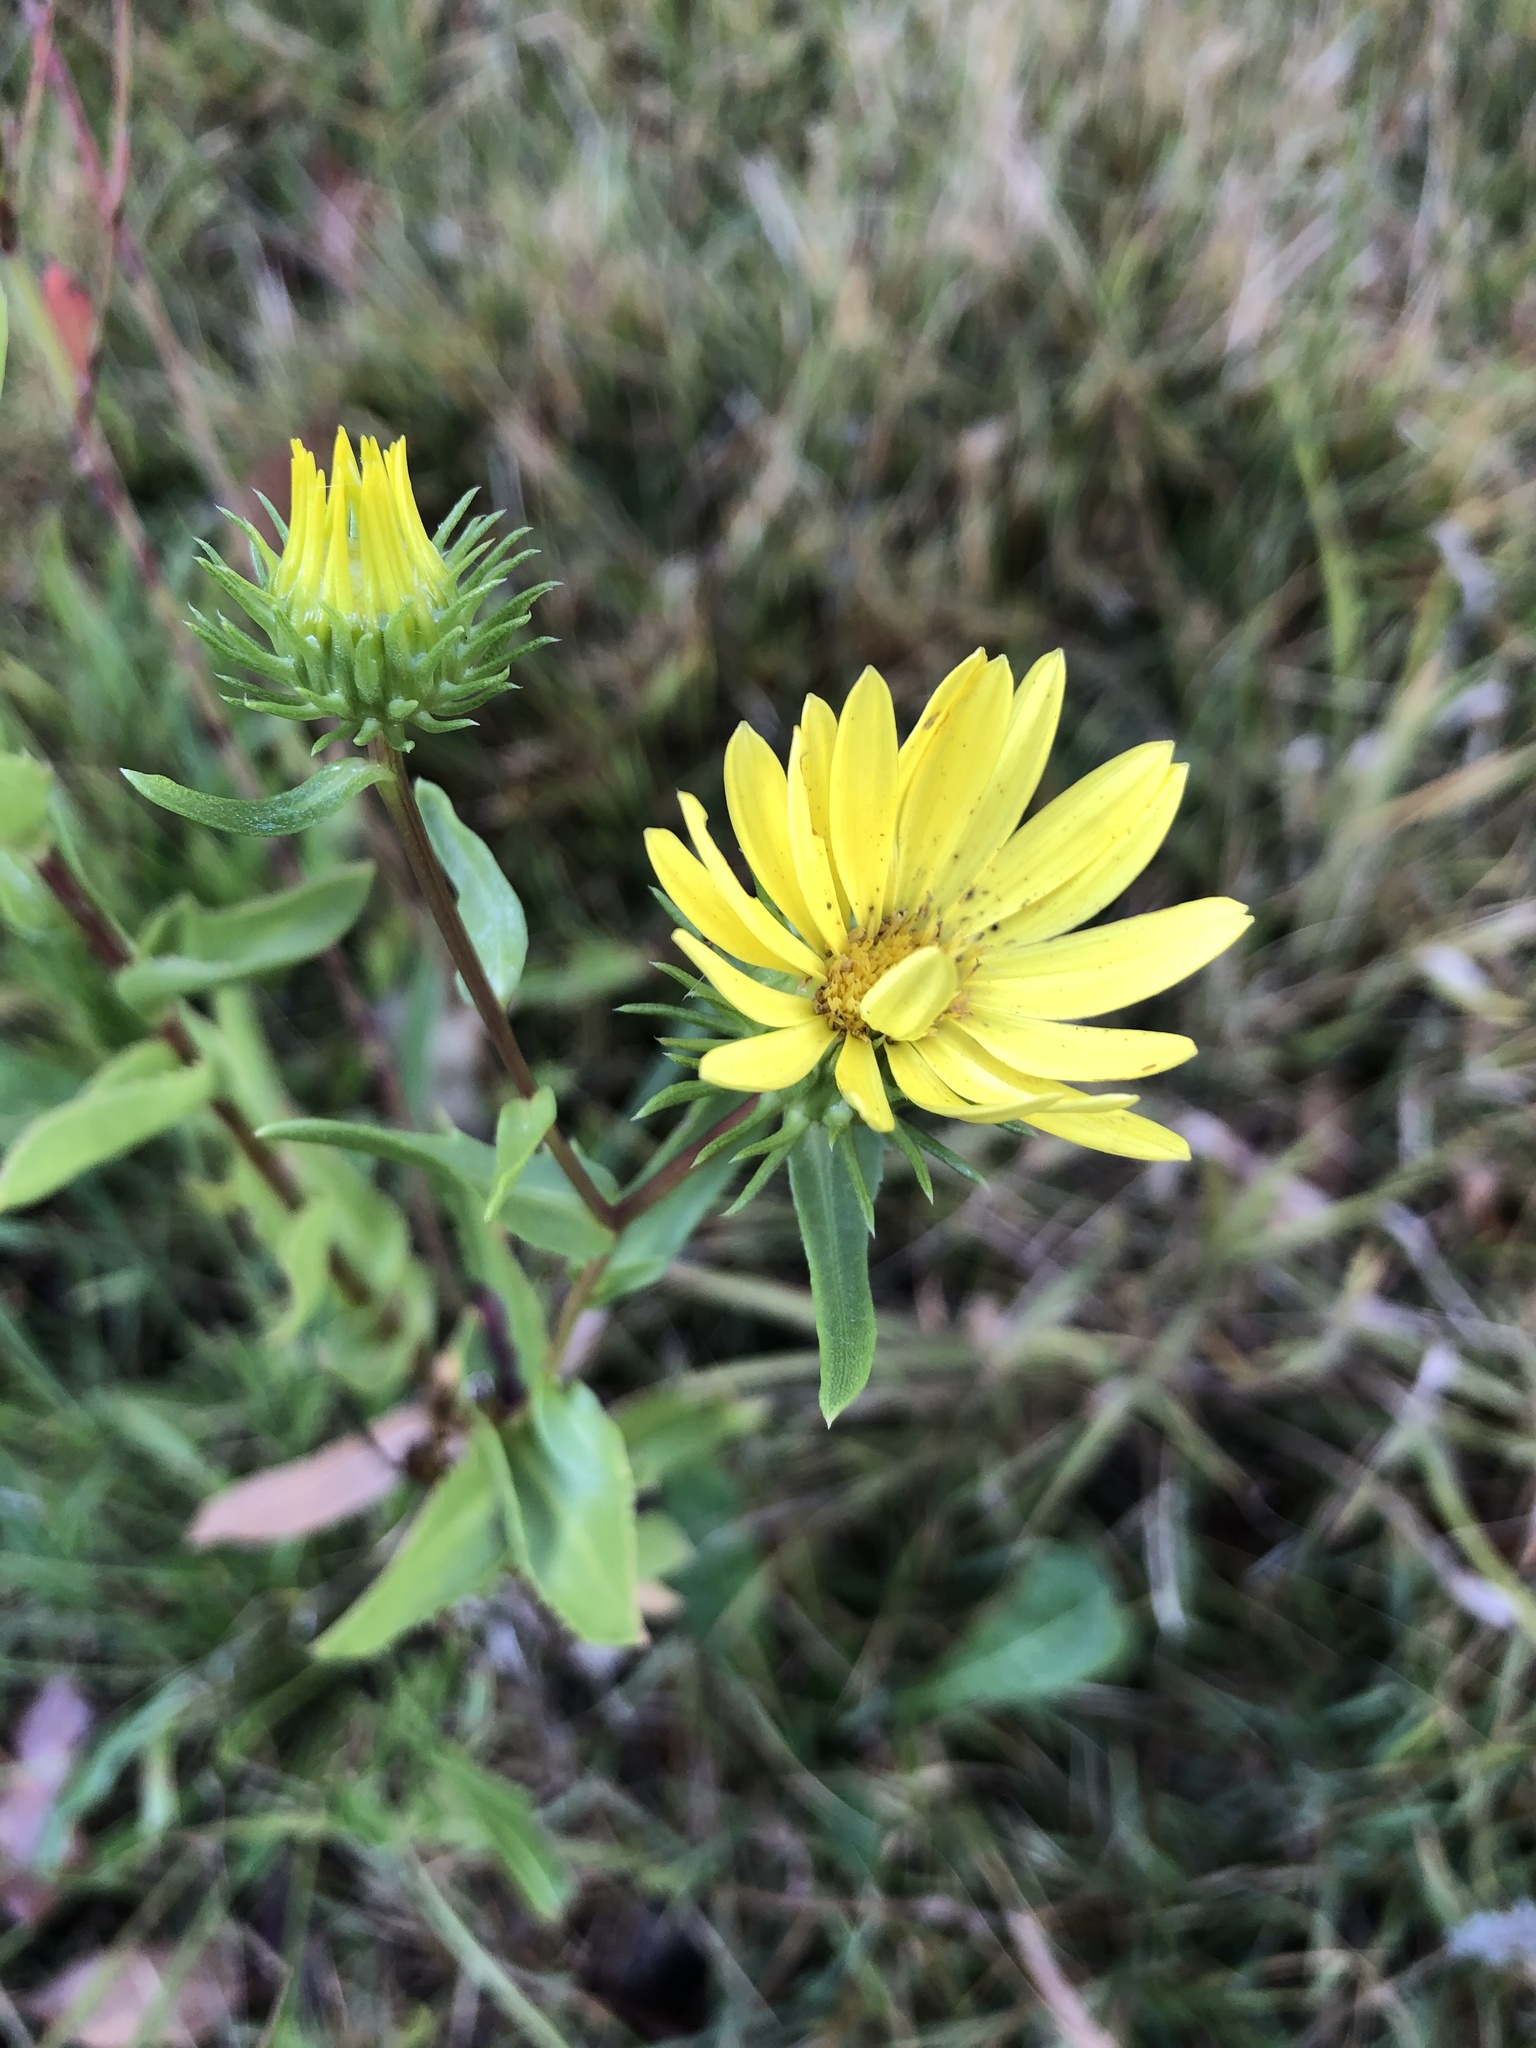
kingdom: Plantae
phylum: Tracheophyta
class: Magnoliopsida
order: Asterales
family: Asteraceae
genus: Grindelia
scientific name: Grindelia lanceolata
